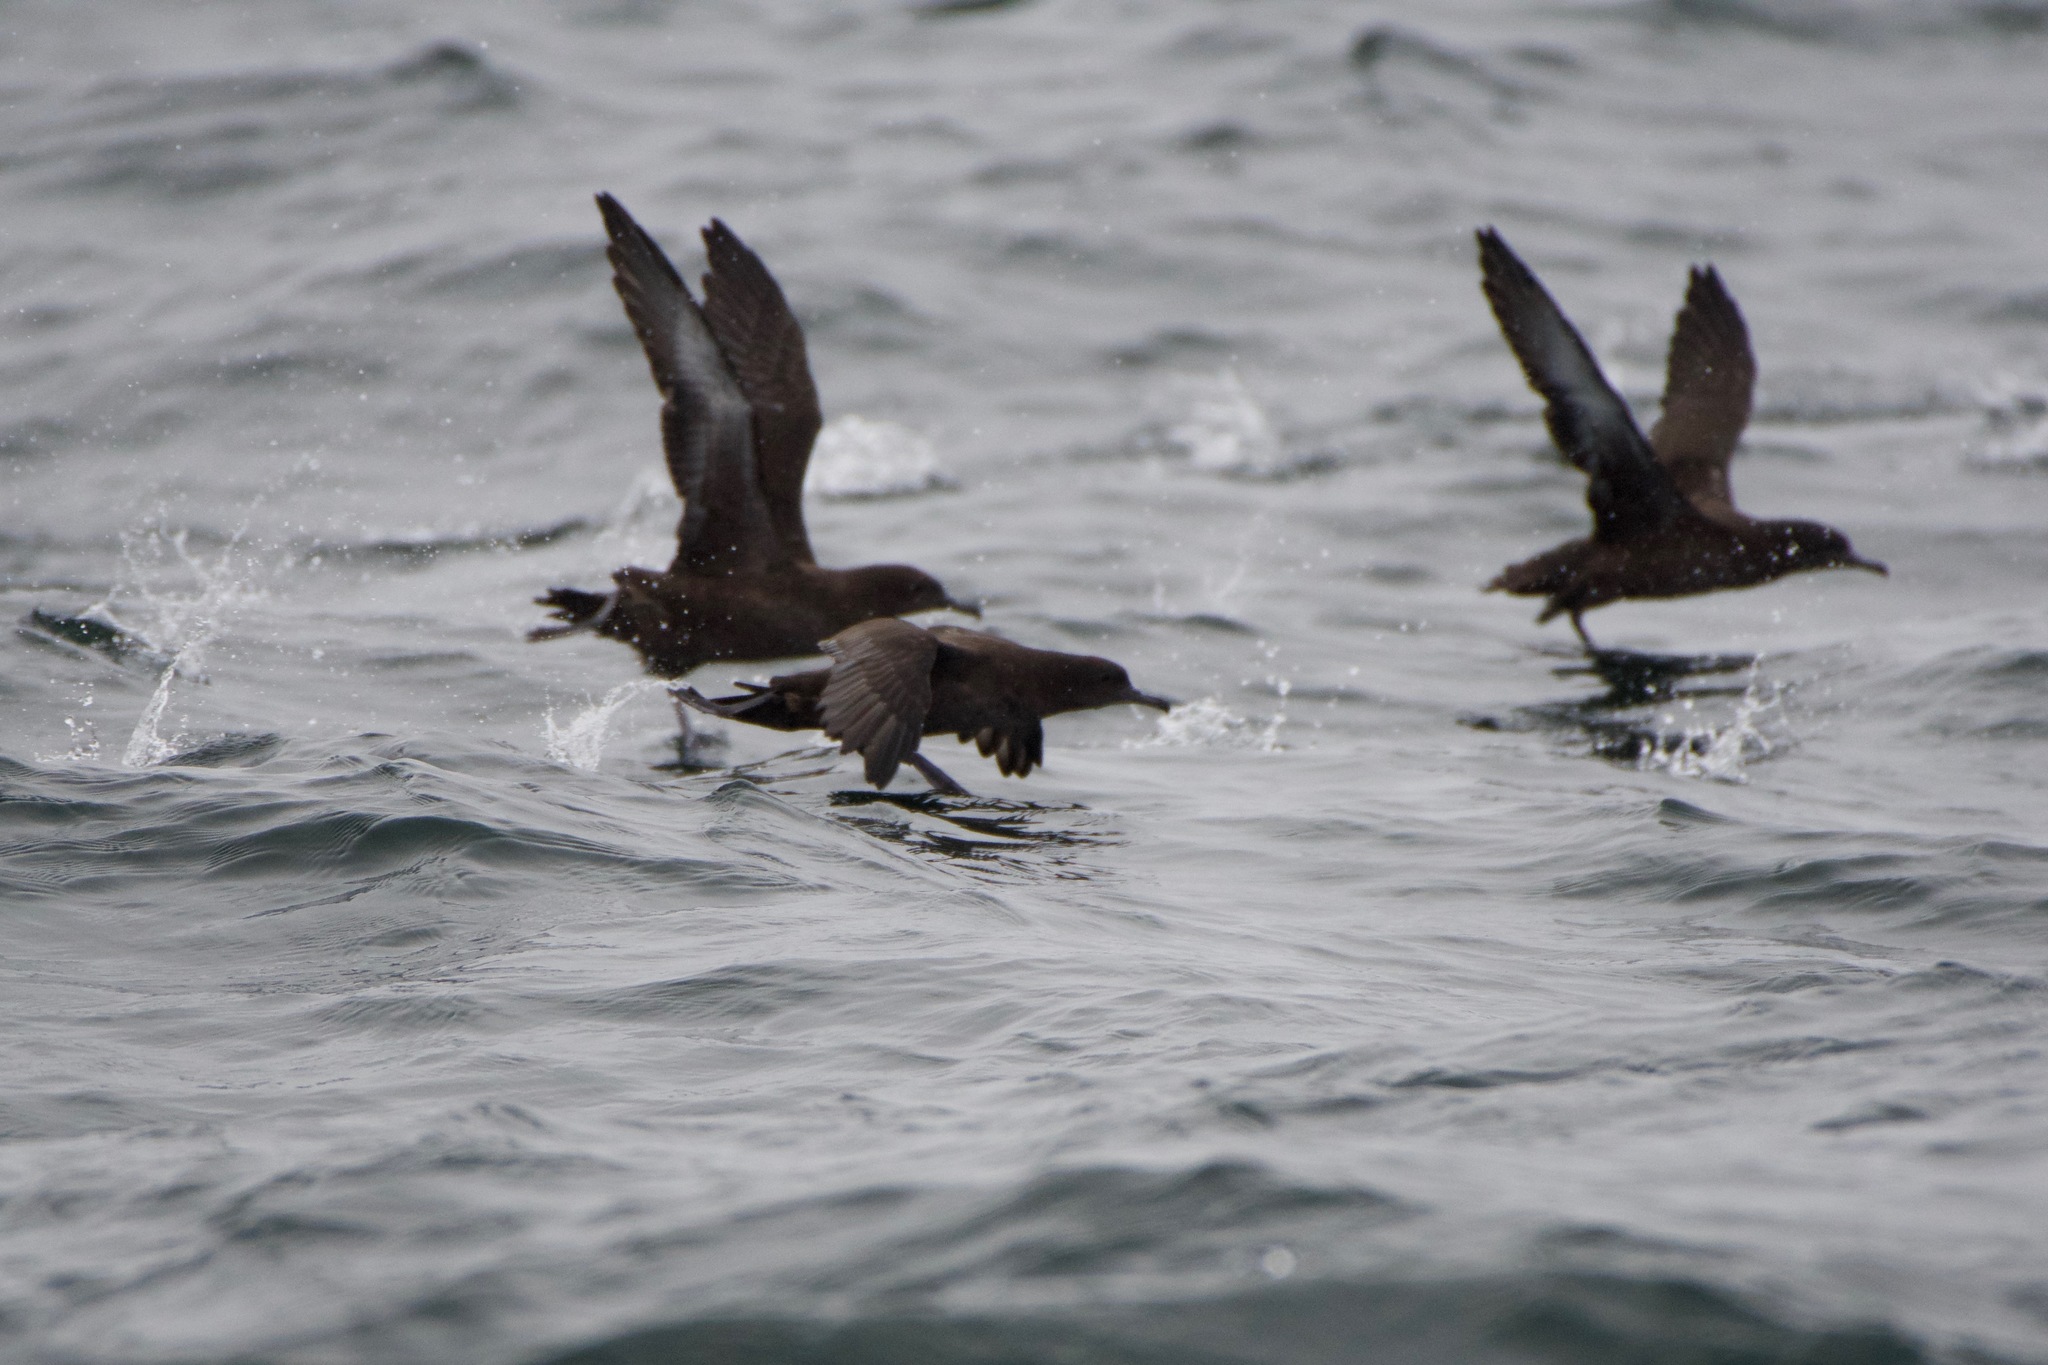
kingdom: Animalia
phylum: Chordata
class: Aves
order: Procellariiformes
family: Procellariidae
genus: Puffinus
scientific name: Puffinus griseus
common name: Sooty shearwater
